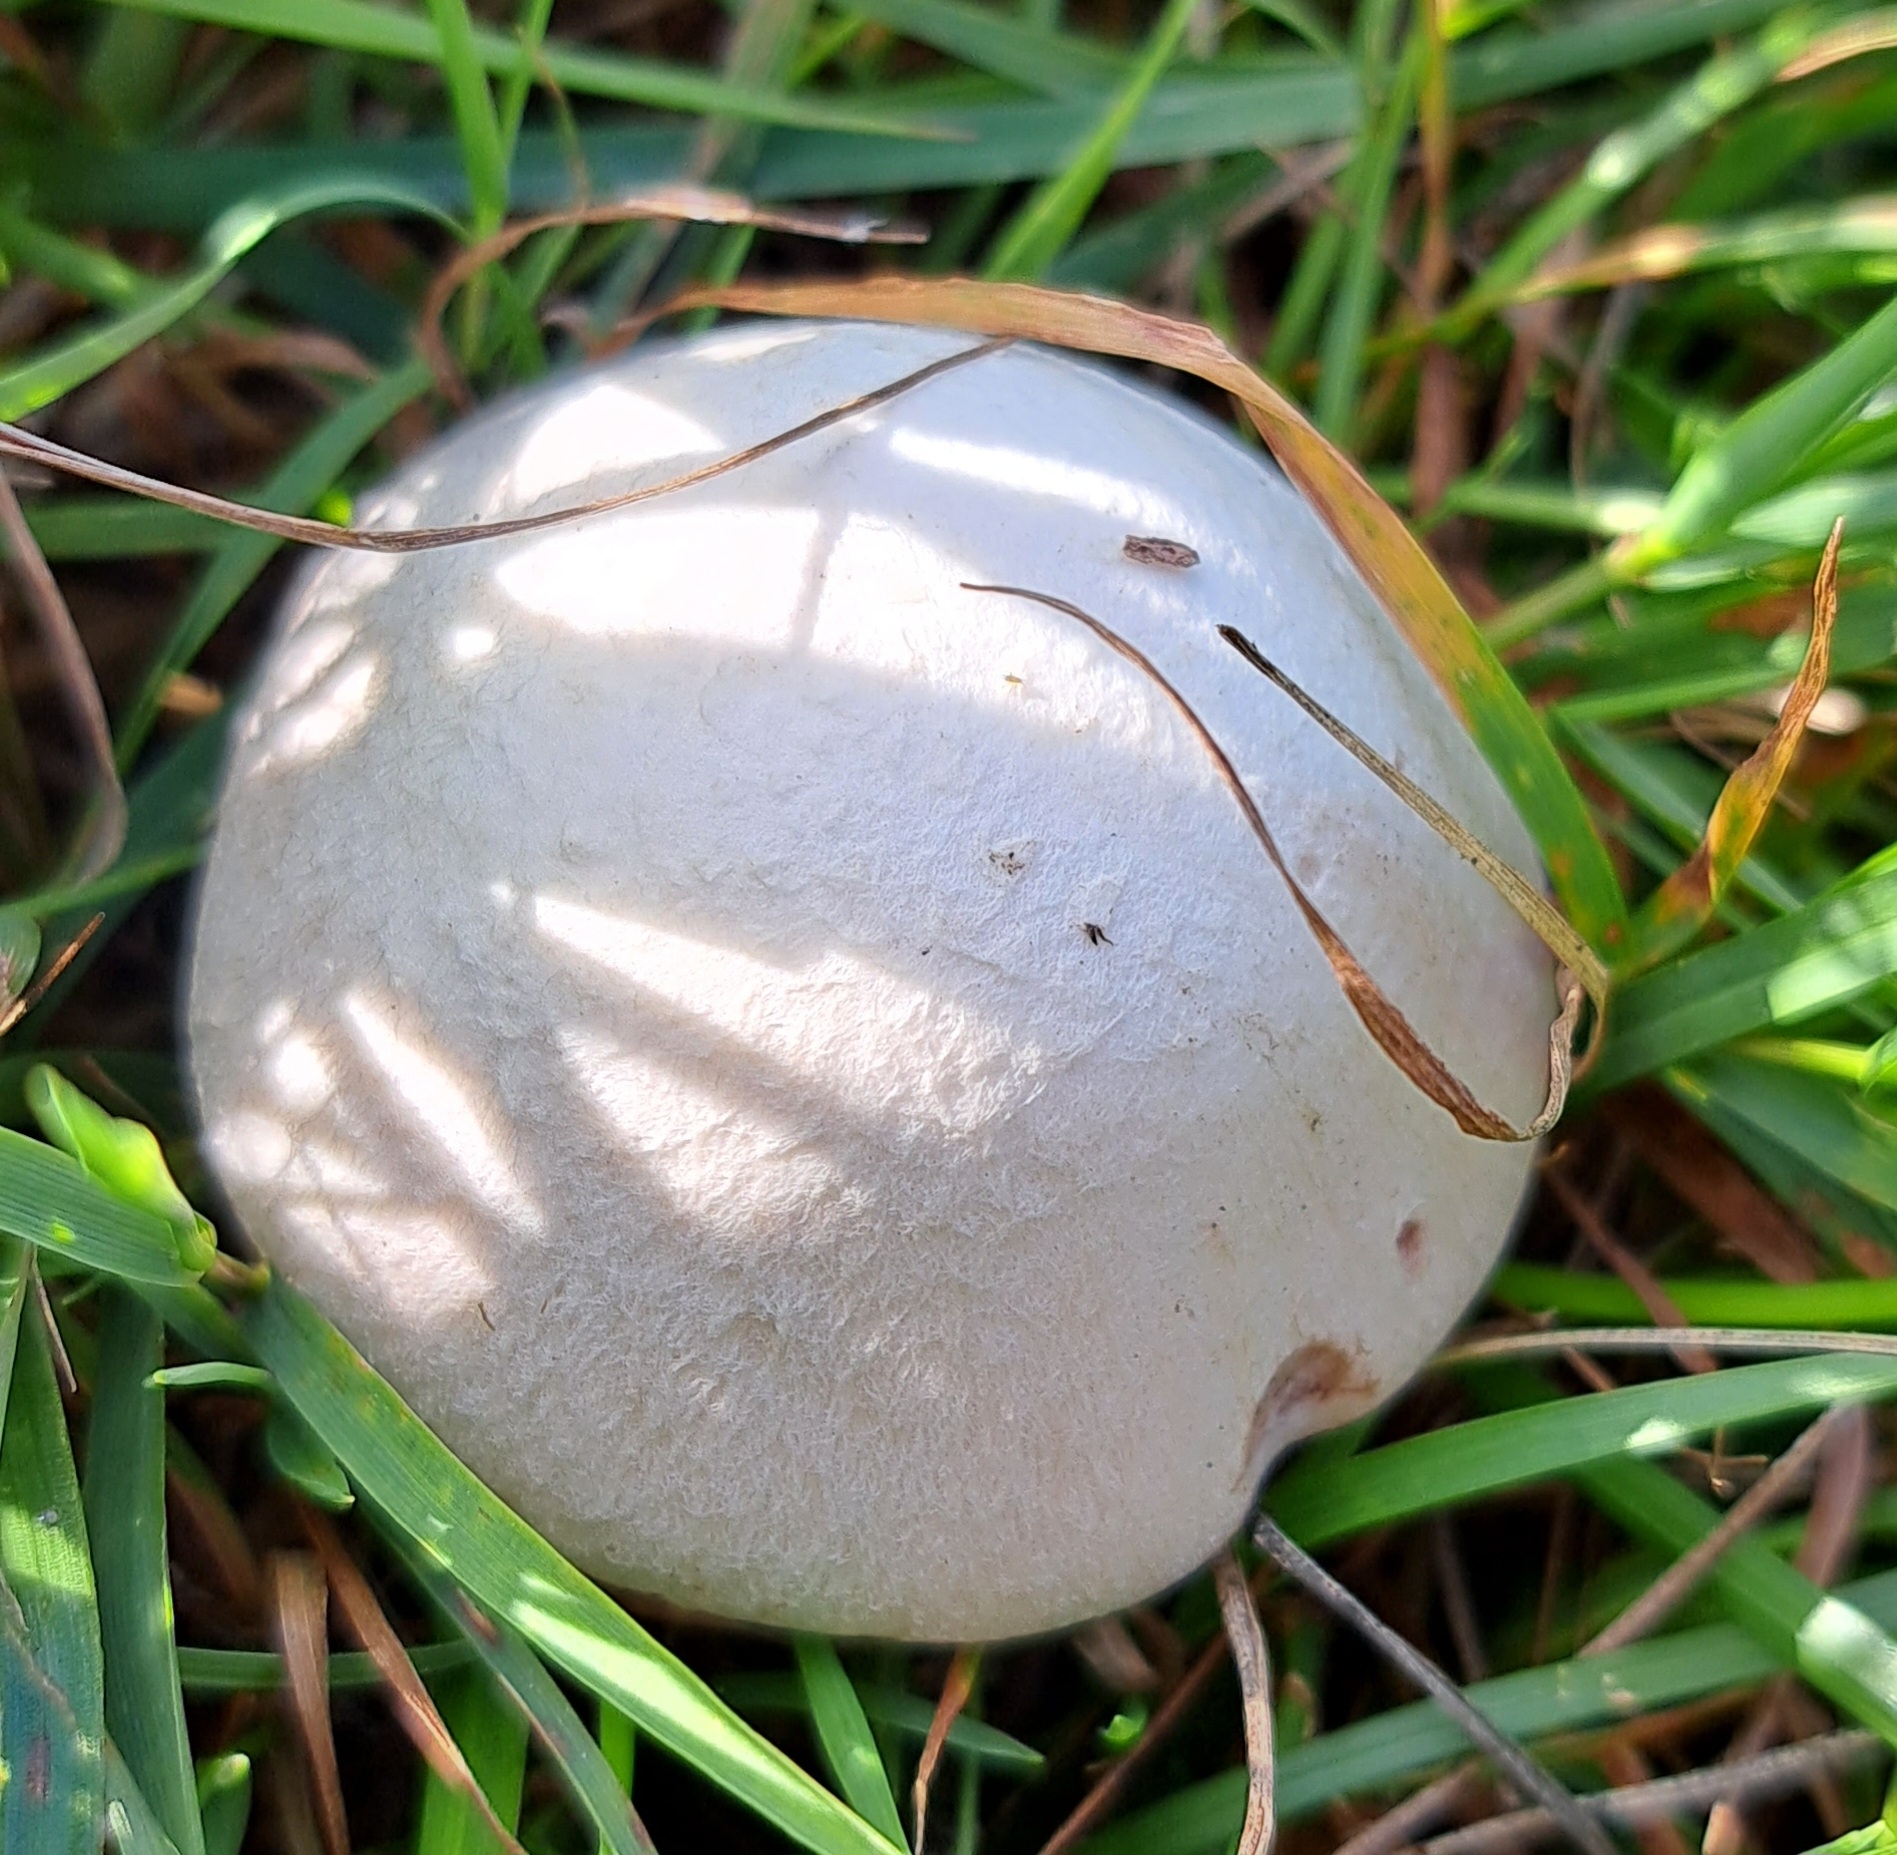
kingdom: Fungi
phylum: Basidiomycota
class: Agaricomycetes
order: Agaricales
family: Agaricaceae
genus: Agaricus
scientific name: Agaricus campestris
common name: Field mushroom
